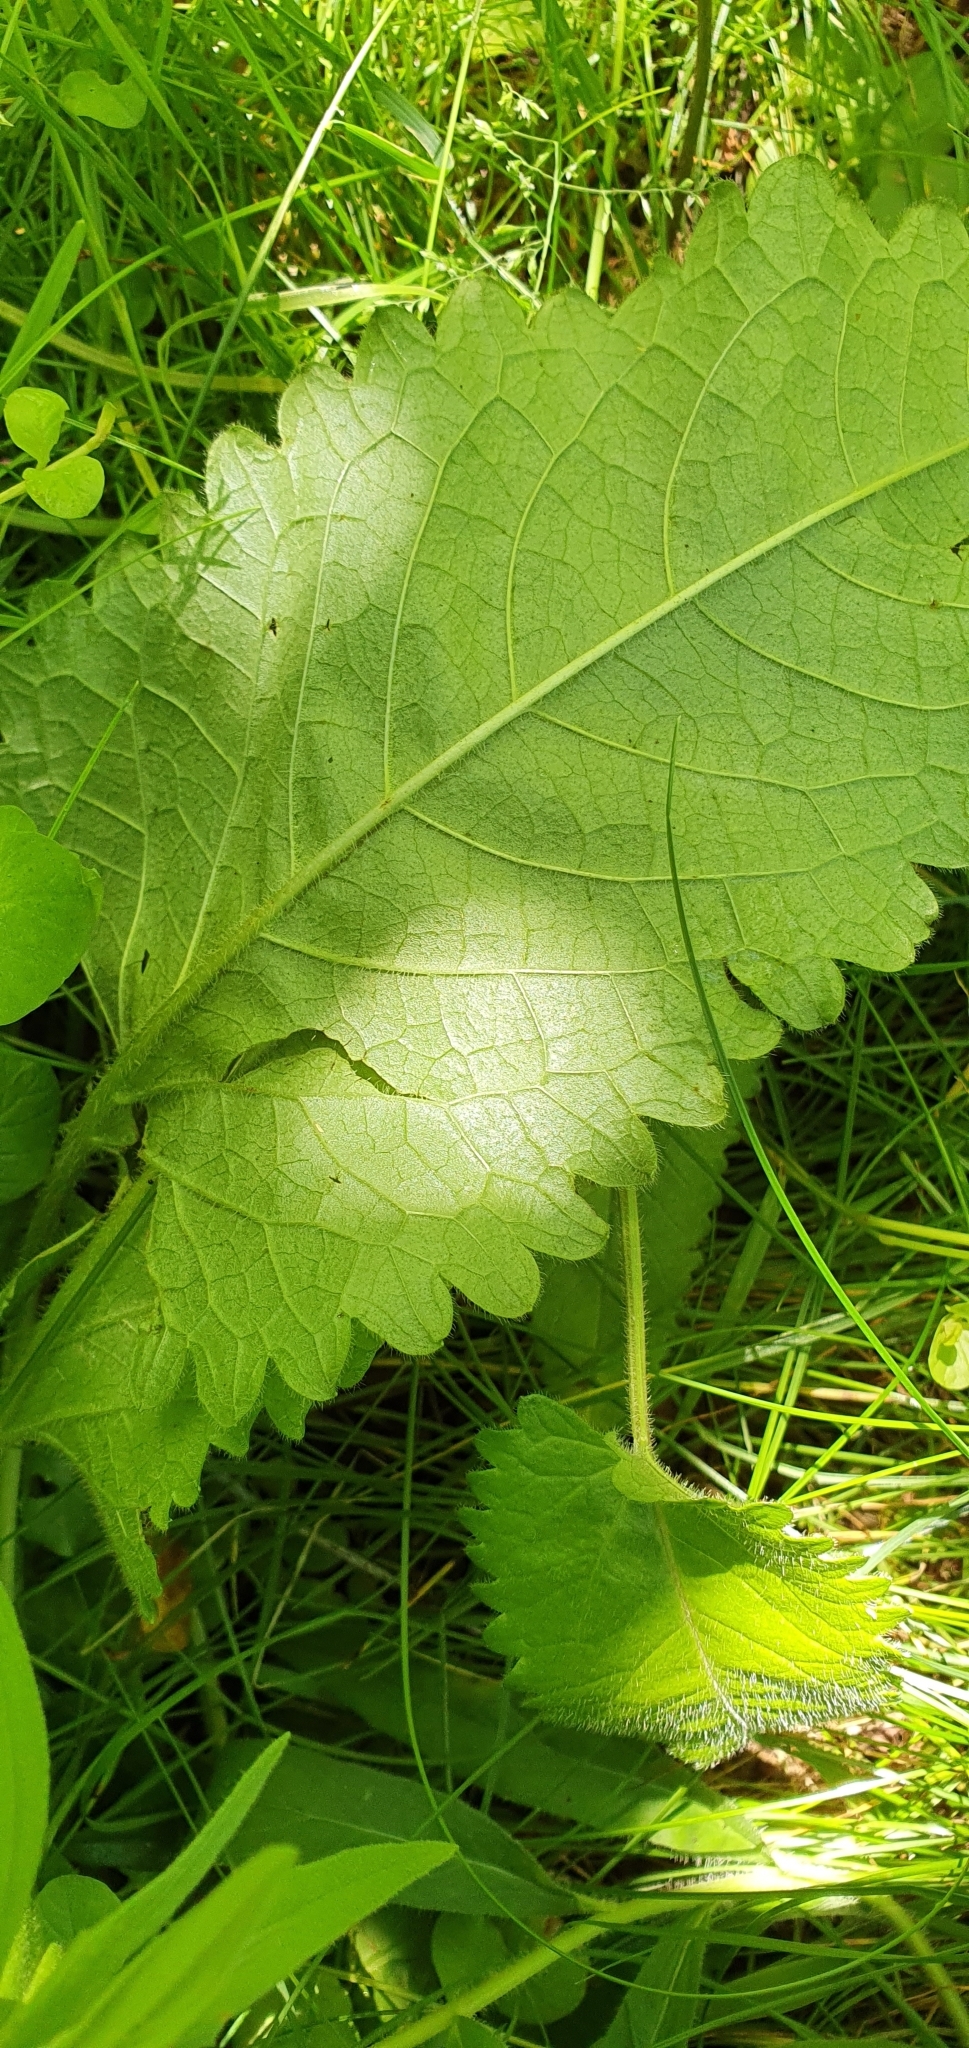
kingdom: Plantae
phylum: Tracheophyta
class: Magnoliopsida
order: Lamiales
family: Lamiaceae
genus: Betonica
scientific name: Betonica officinalis
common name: Bishop's-wort
